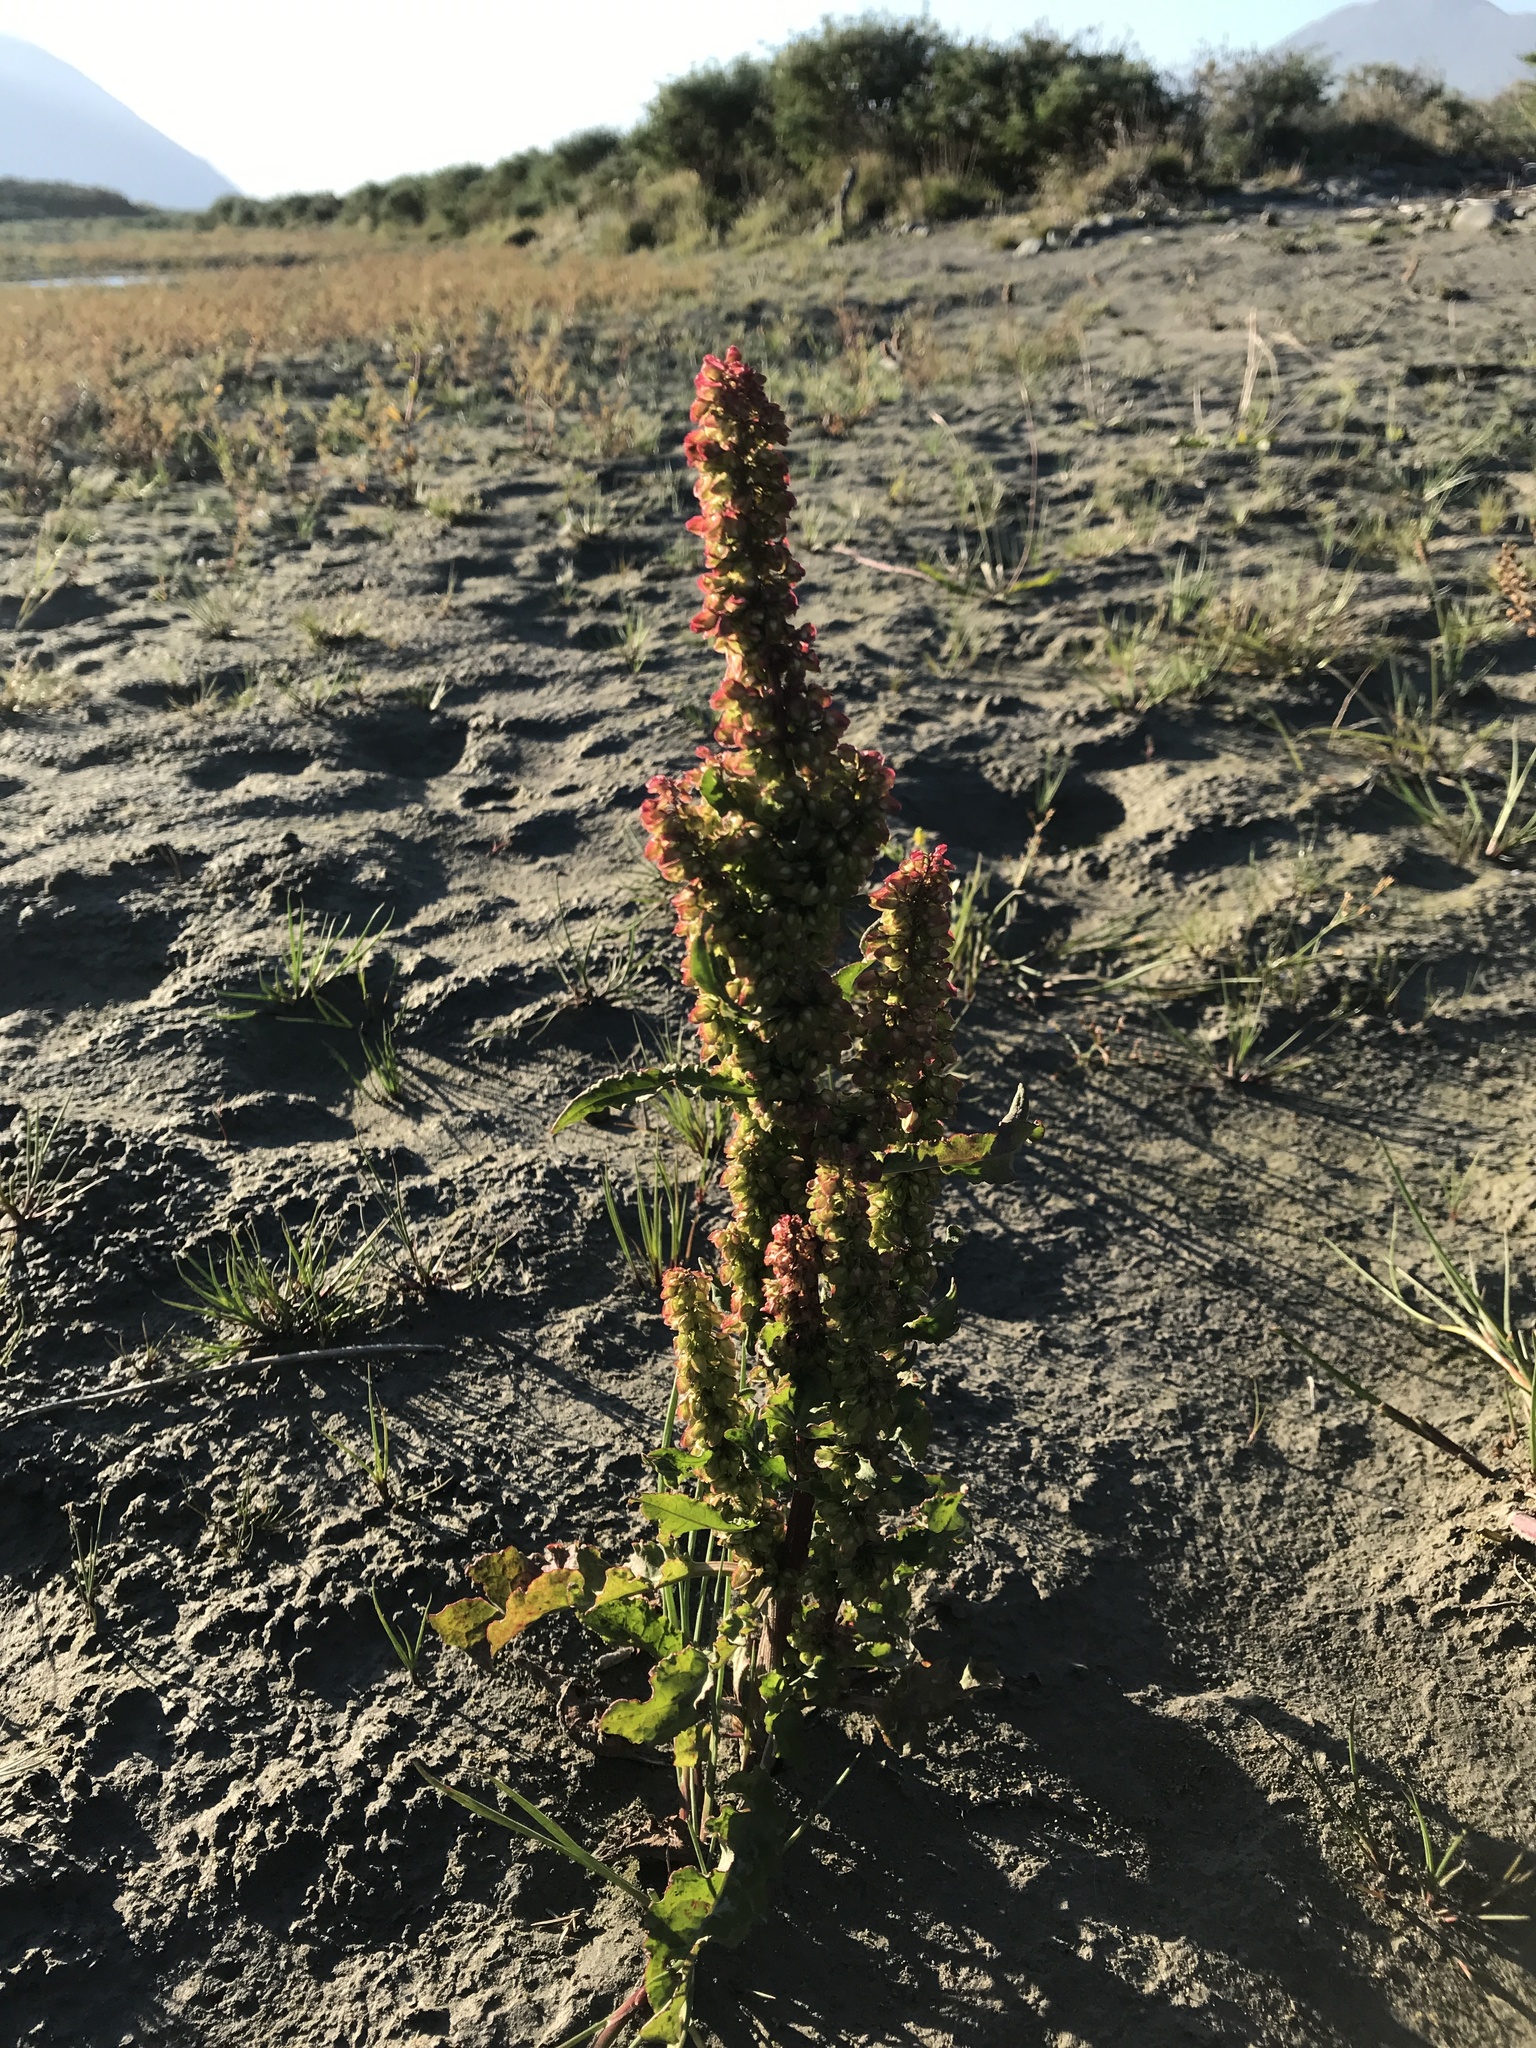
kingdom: Plantae
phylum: Tracheophyta
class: Magnoliopsida
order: Caryophyllales
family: Polygonaceae
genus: Rumex
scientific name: Rumex crispus
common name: Curled dock
